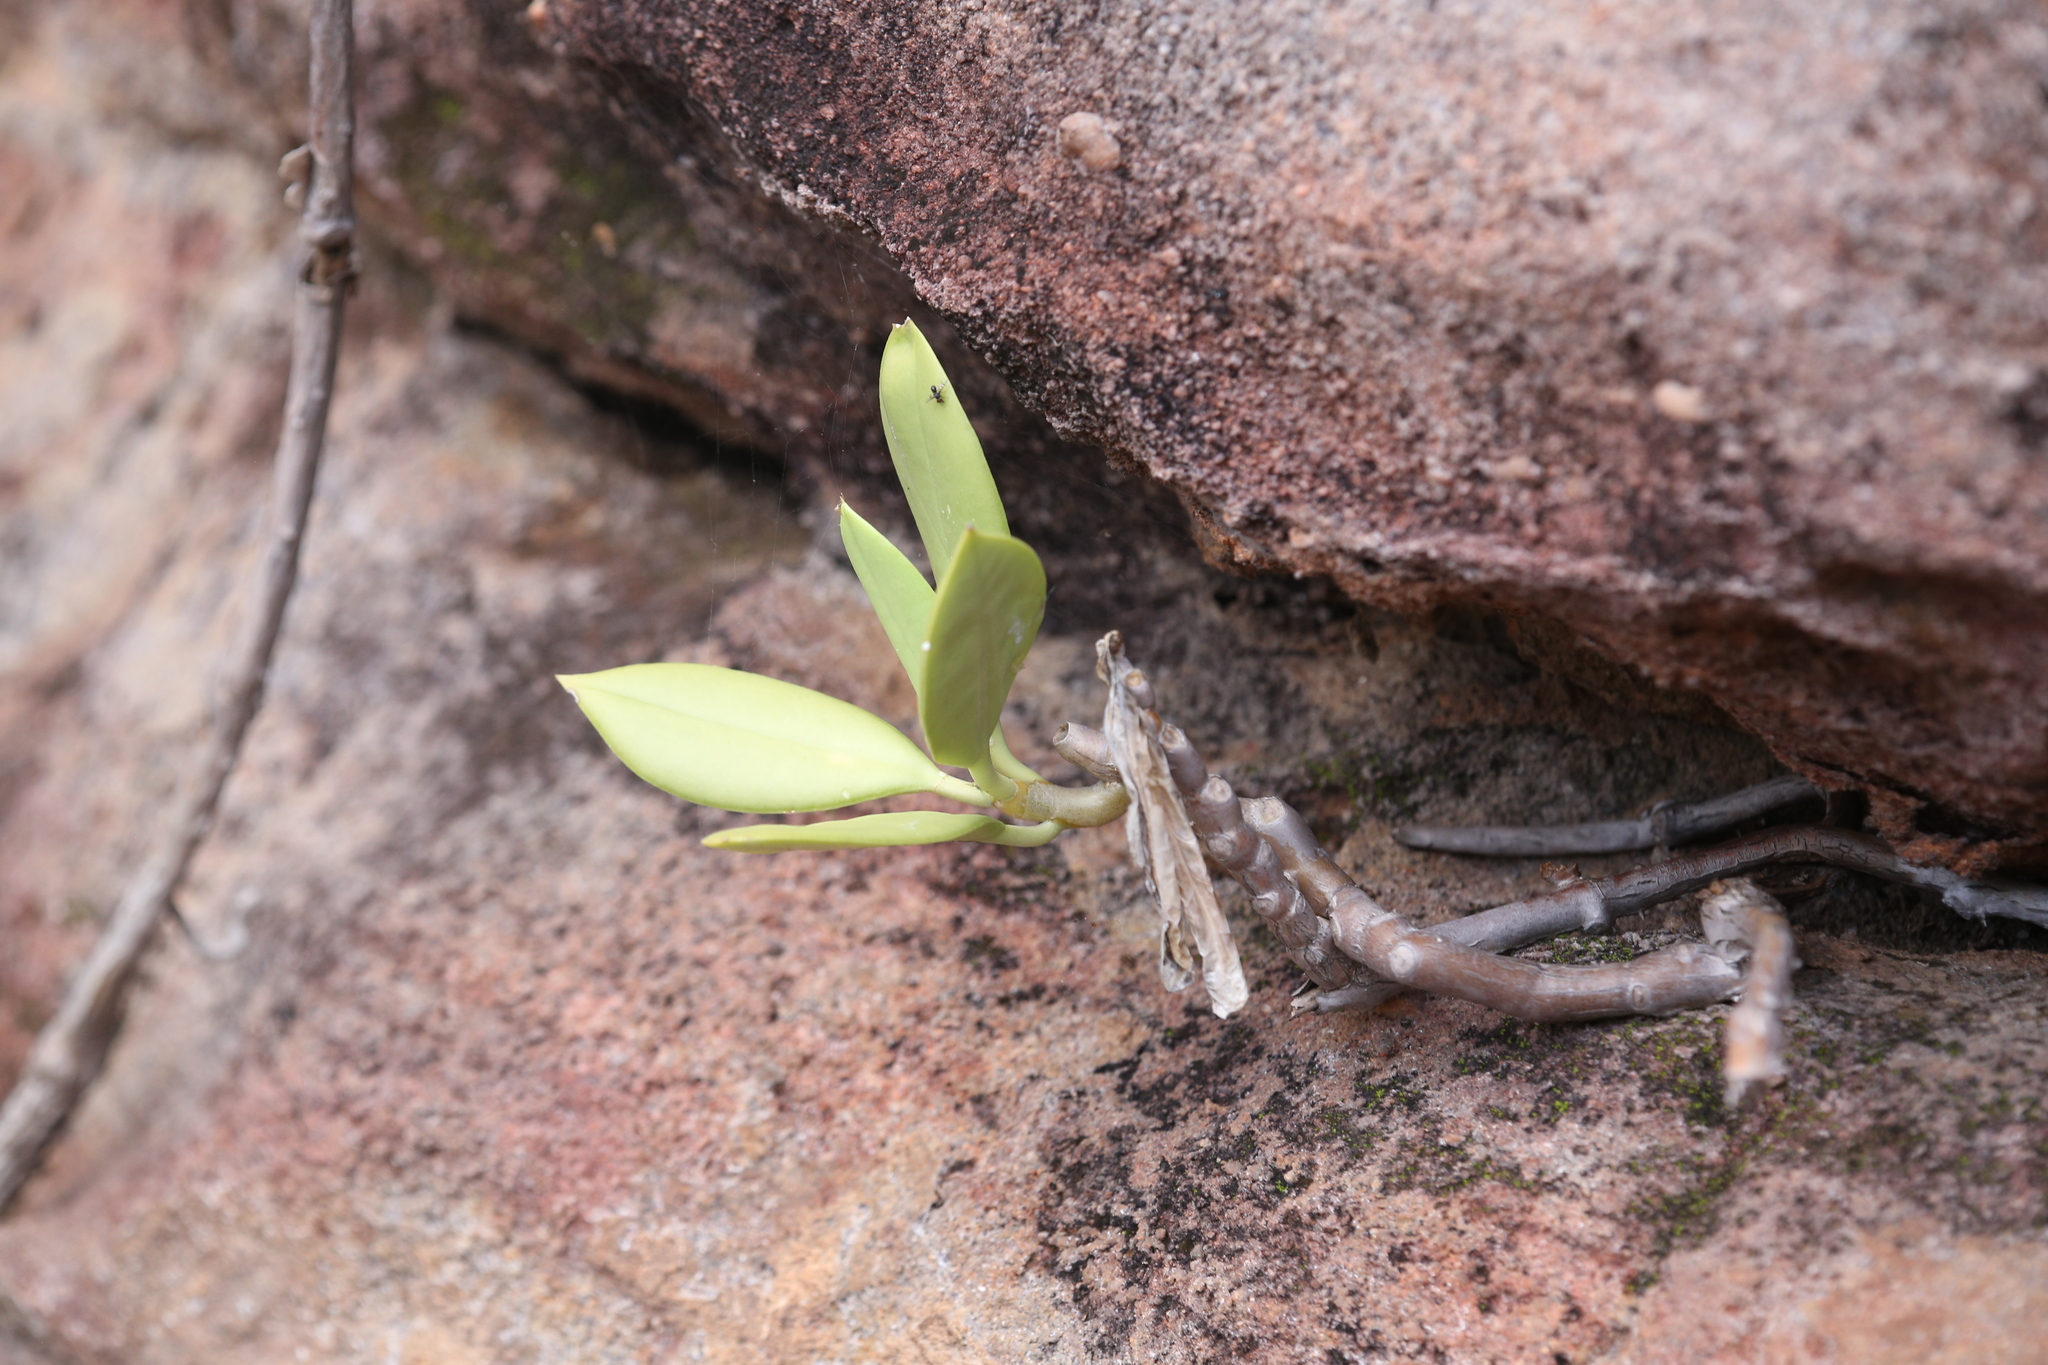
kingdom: Plantae
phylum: Tracheophyta
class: Magnoliopsida
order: Gentianales
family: Apocynaceae
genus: Hoya
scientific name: Hoya australis
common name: Wax flower
